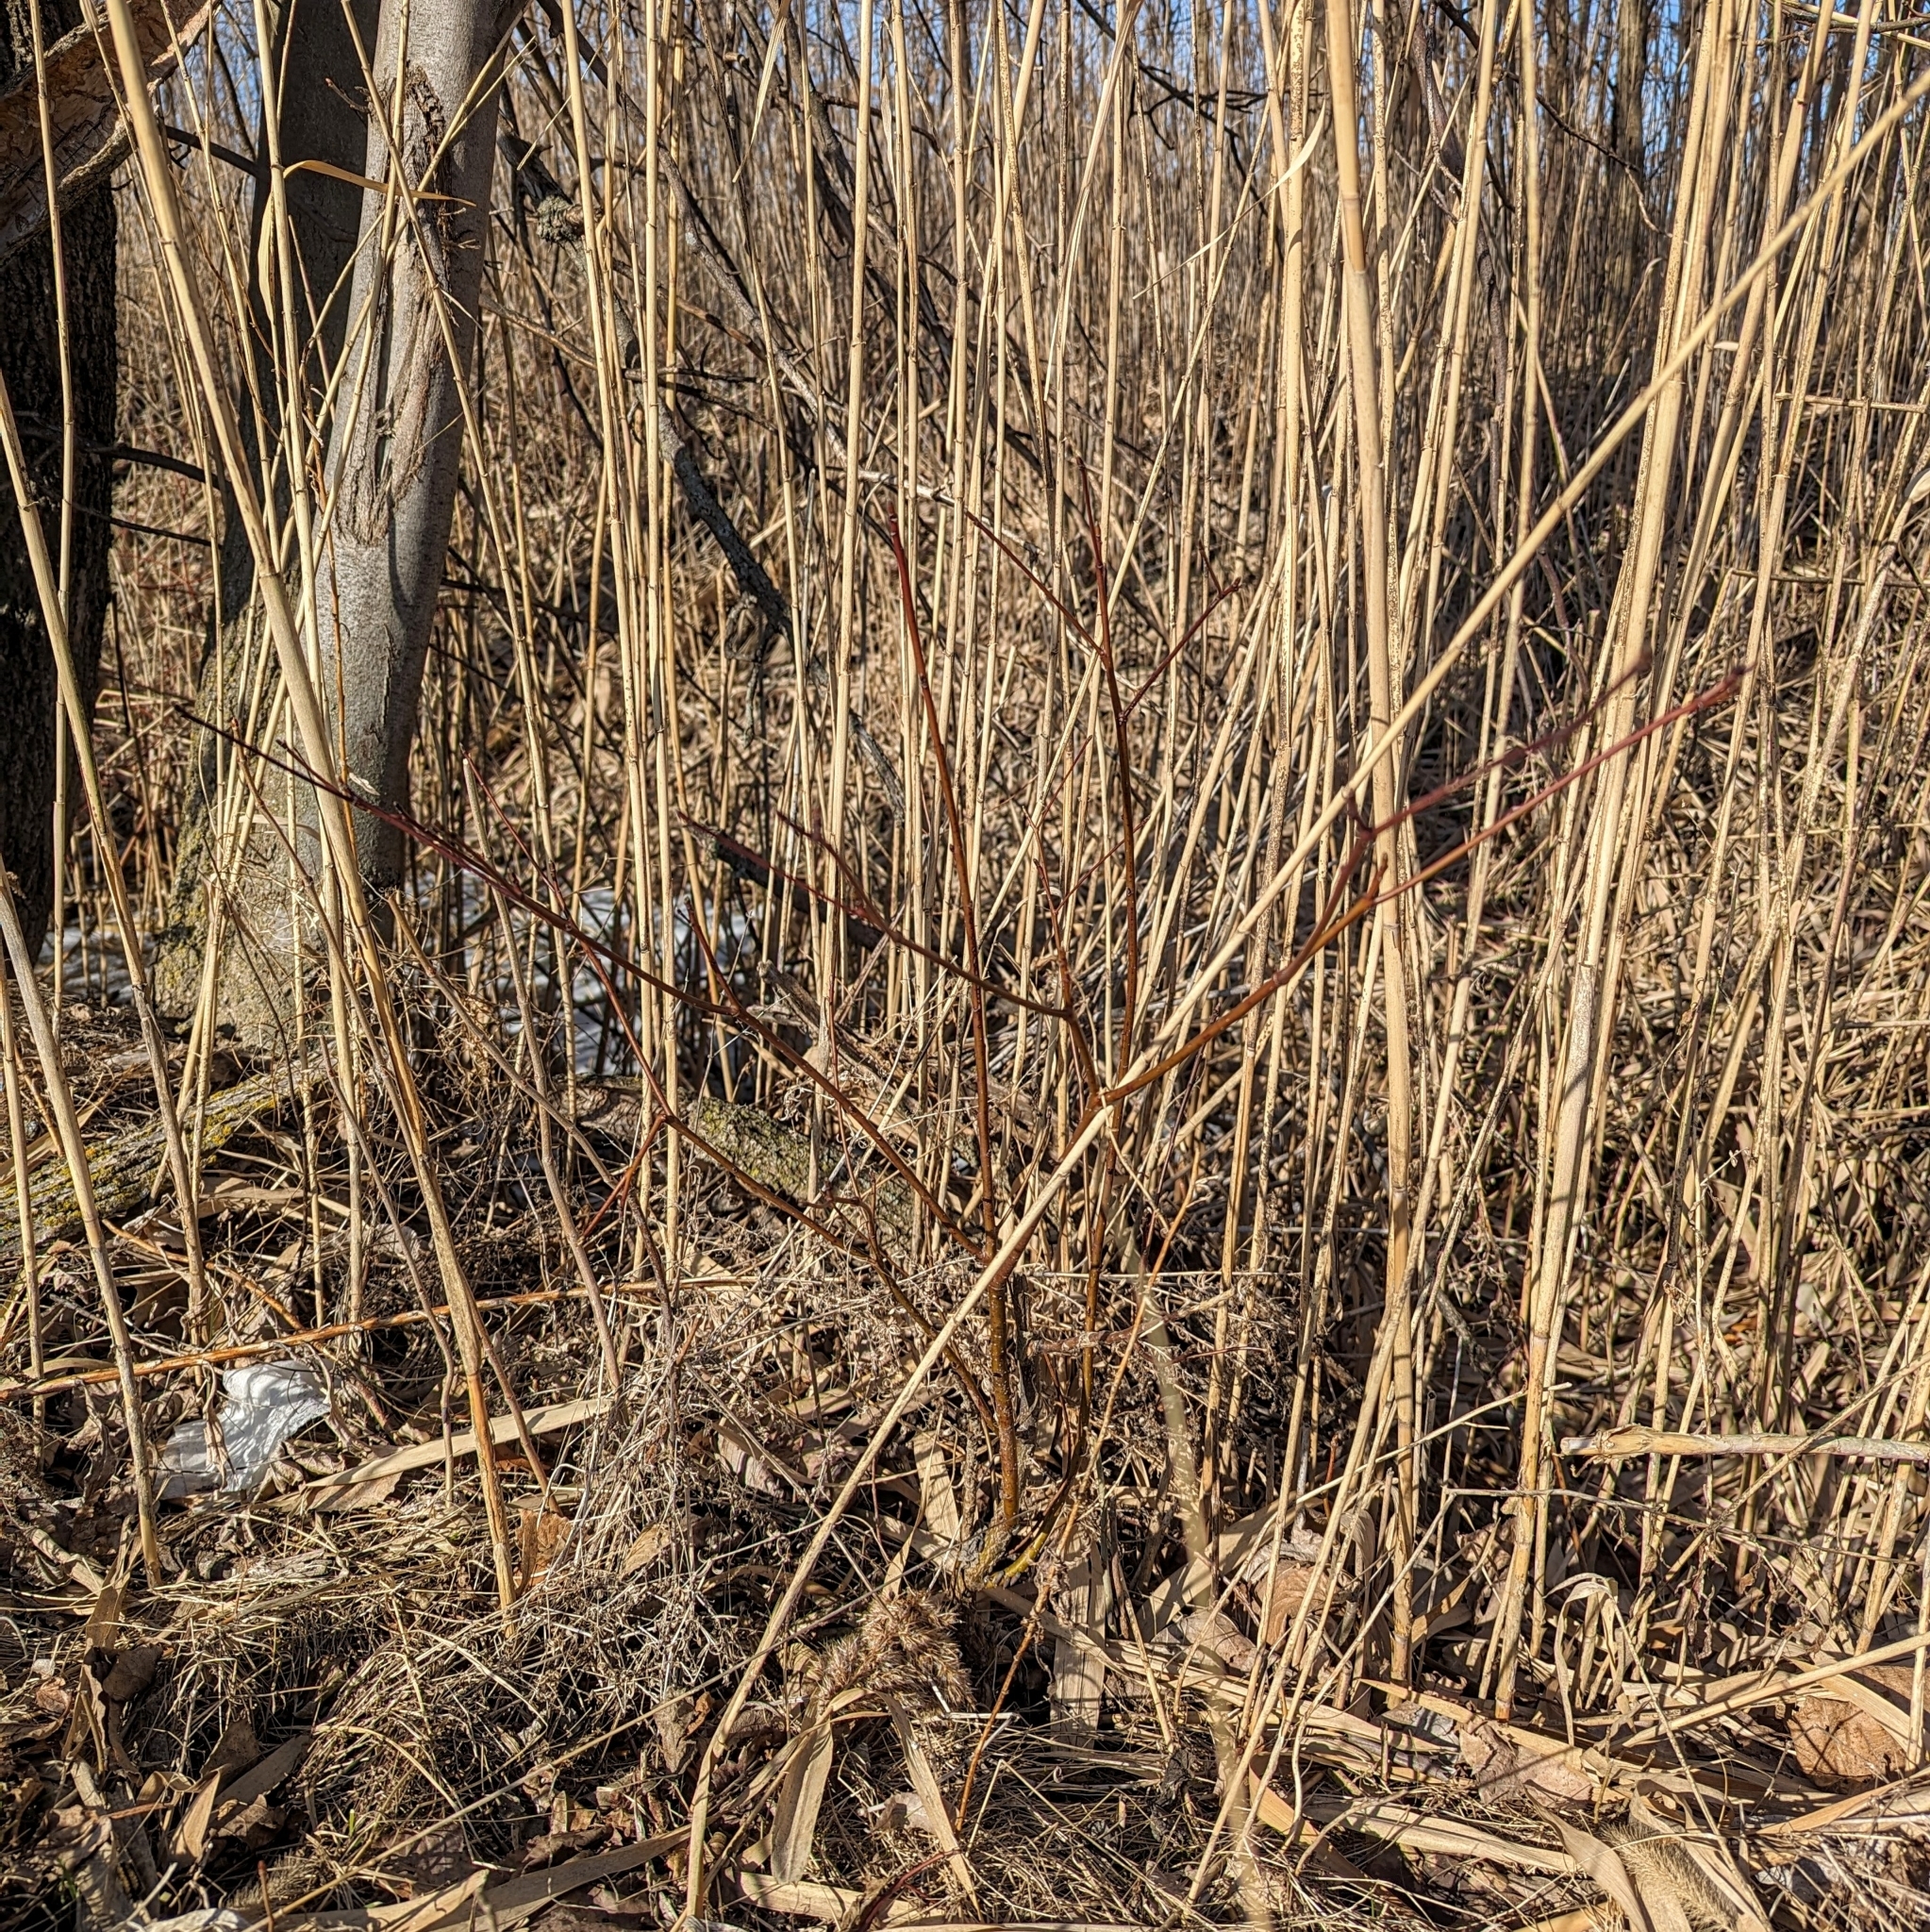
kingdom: Plantae
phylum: Tracheophyta
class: Magnoliopsida
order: Cornales
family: Cornaceae
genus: Cornus
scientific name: Cornus alternifolia
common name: Pagoda dogwood
